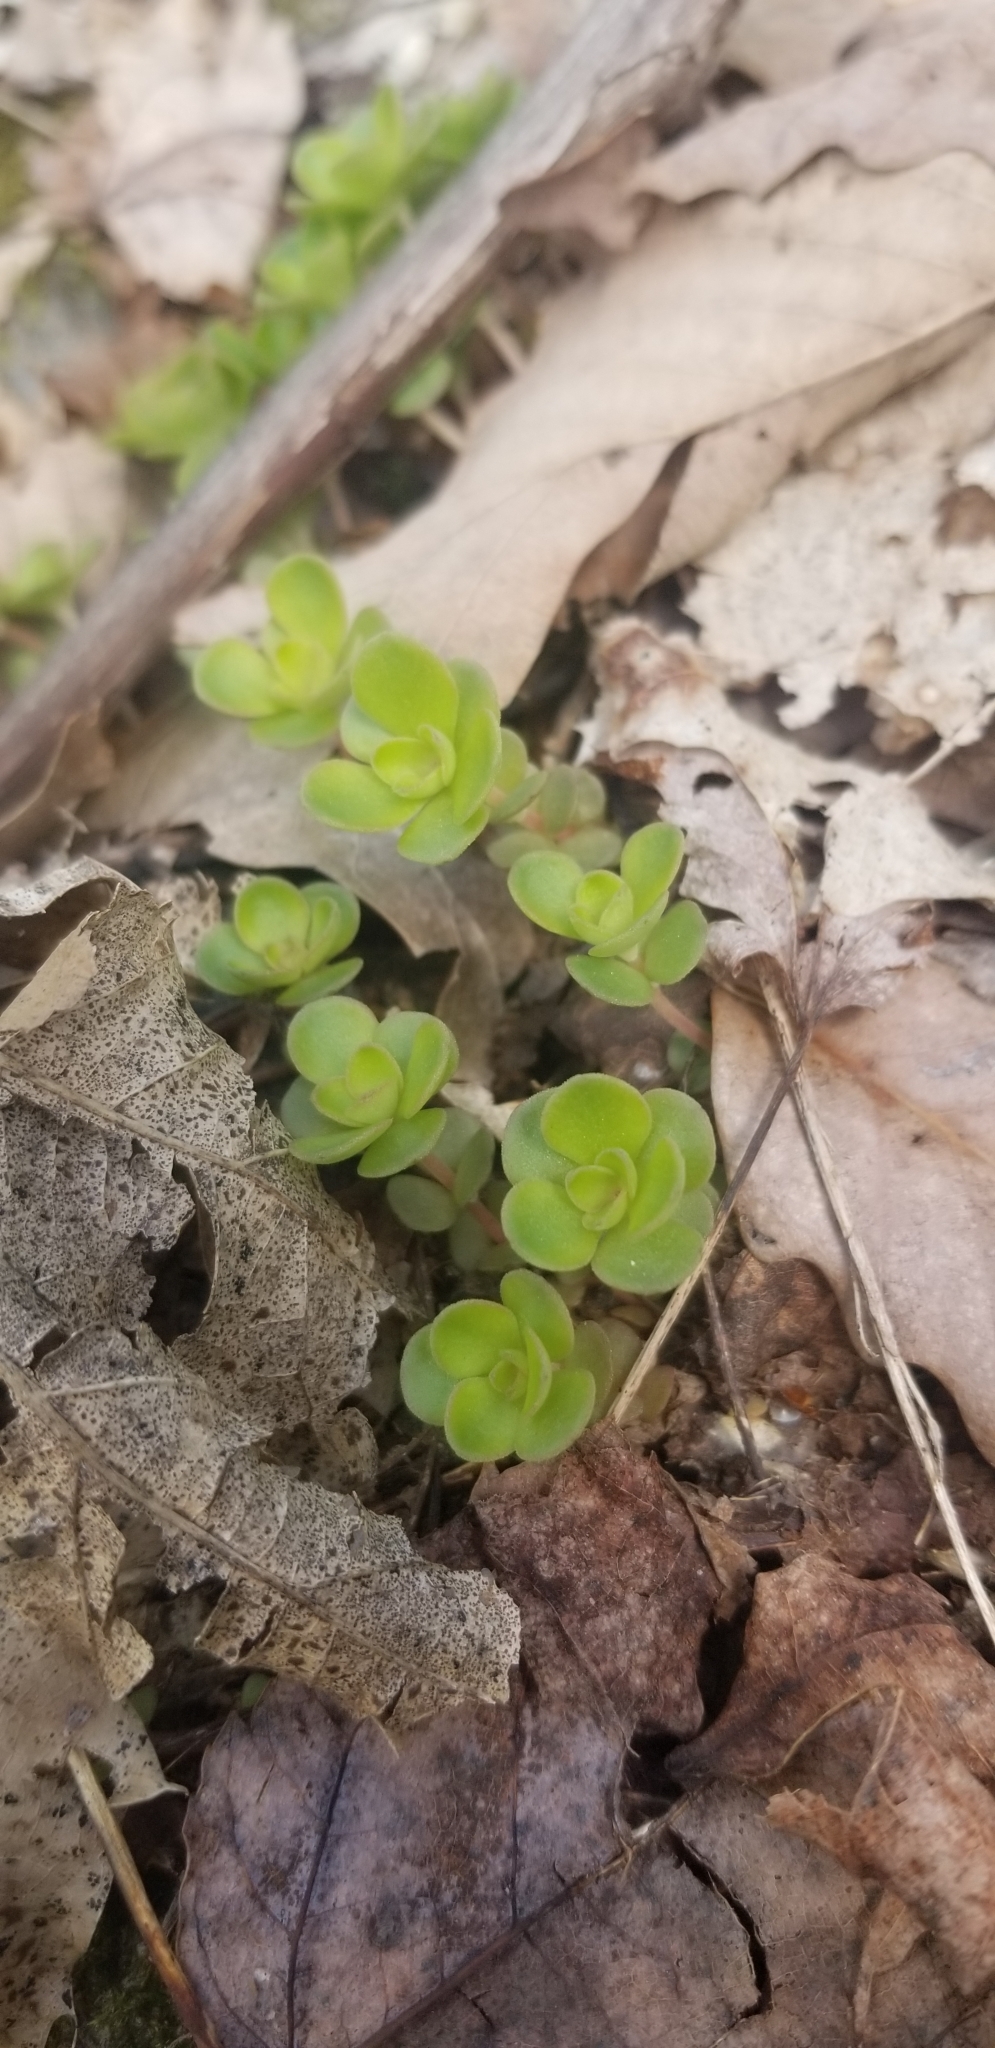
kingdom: Plantae
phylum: Tracheophyta
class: Magnoliopsida
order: Saxifragales
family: Crassulaceae
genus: Sedum
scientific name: Sedum ternatum
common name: Wild stonecrop
